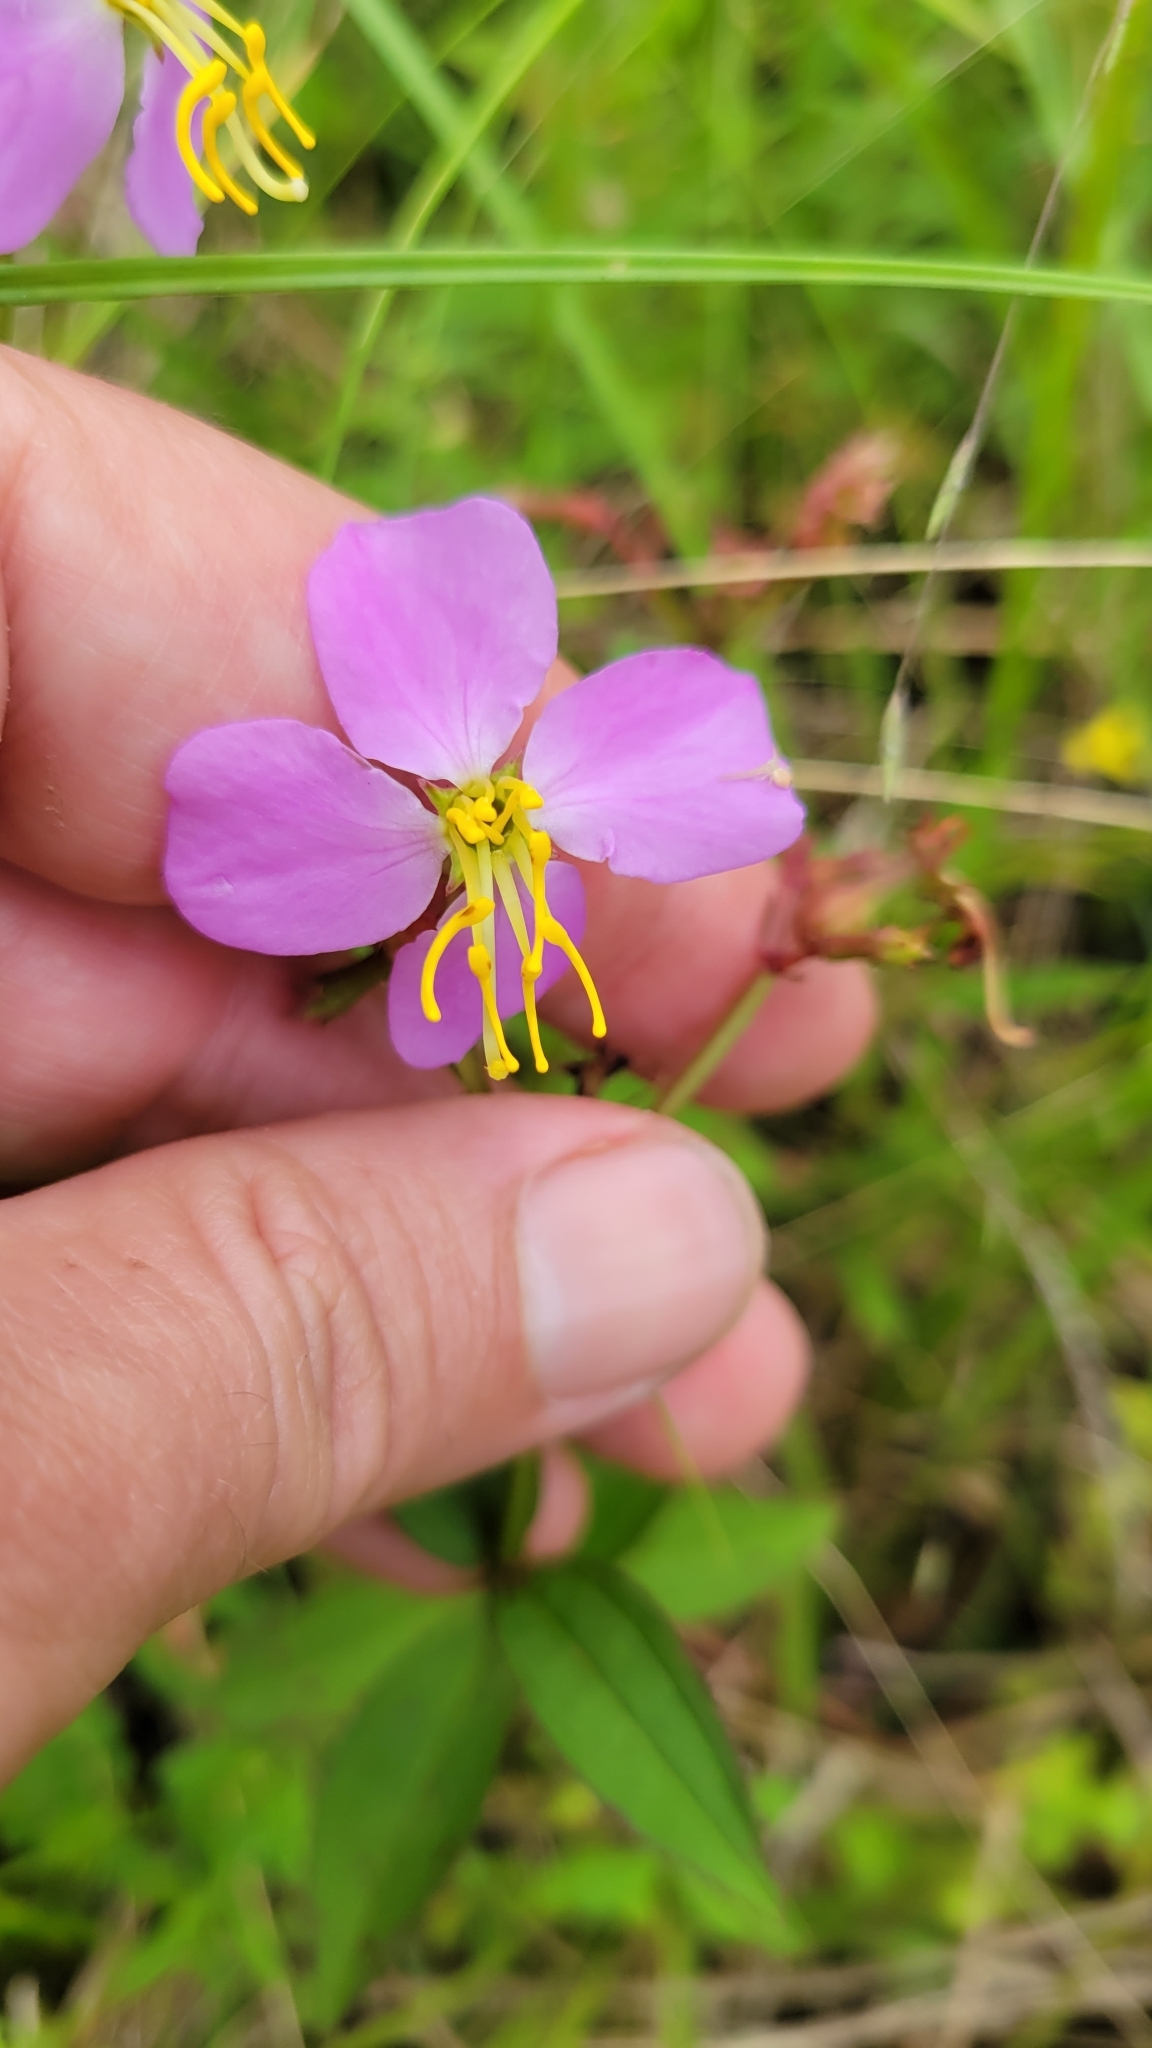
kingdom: Plantae
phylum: Tracheophyta
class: Magnoliopsida
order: Myrtales
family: Melastomataceae
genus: Rhexia
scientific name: Rhexia virginica
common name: Common meadow beauty
